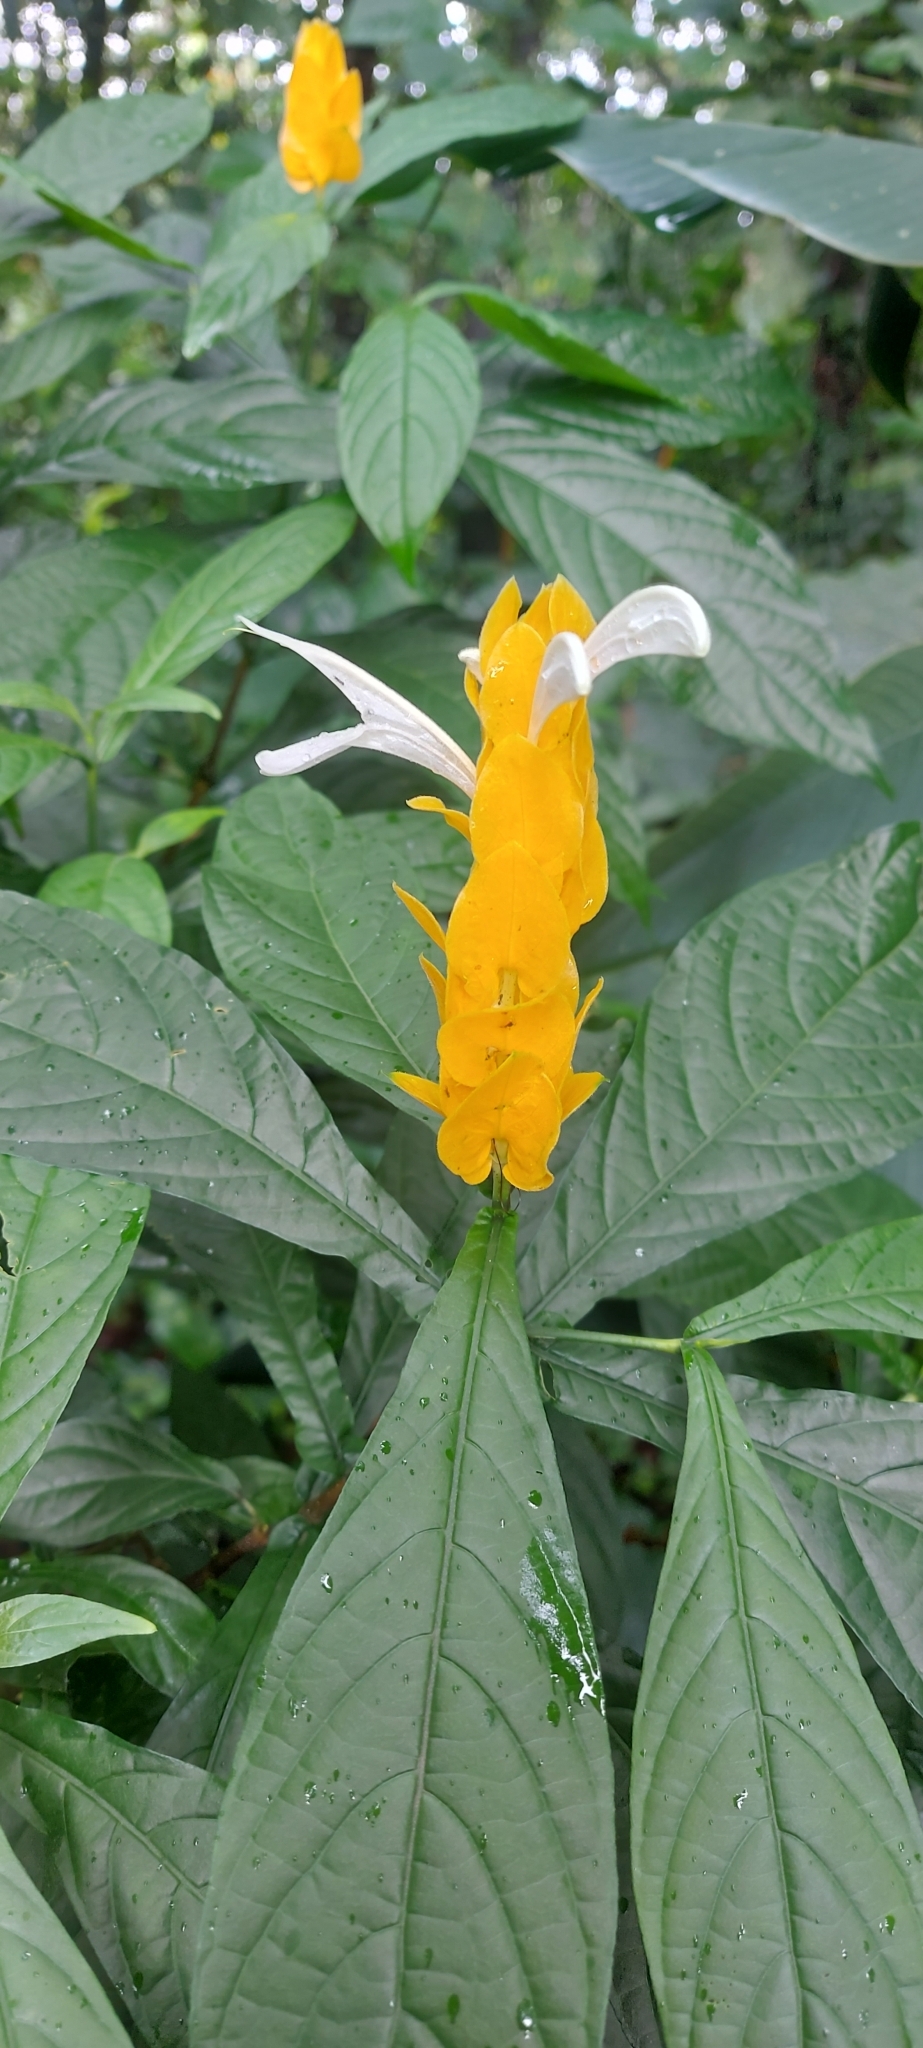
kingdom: Plantae
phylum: Tracheophyta
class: Magnoliopsida
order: Lamiales
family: Acanthaceae
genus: Pachystachys
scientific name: Pachystachys lutea
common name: Golden shrimp-plant
